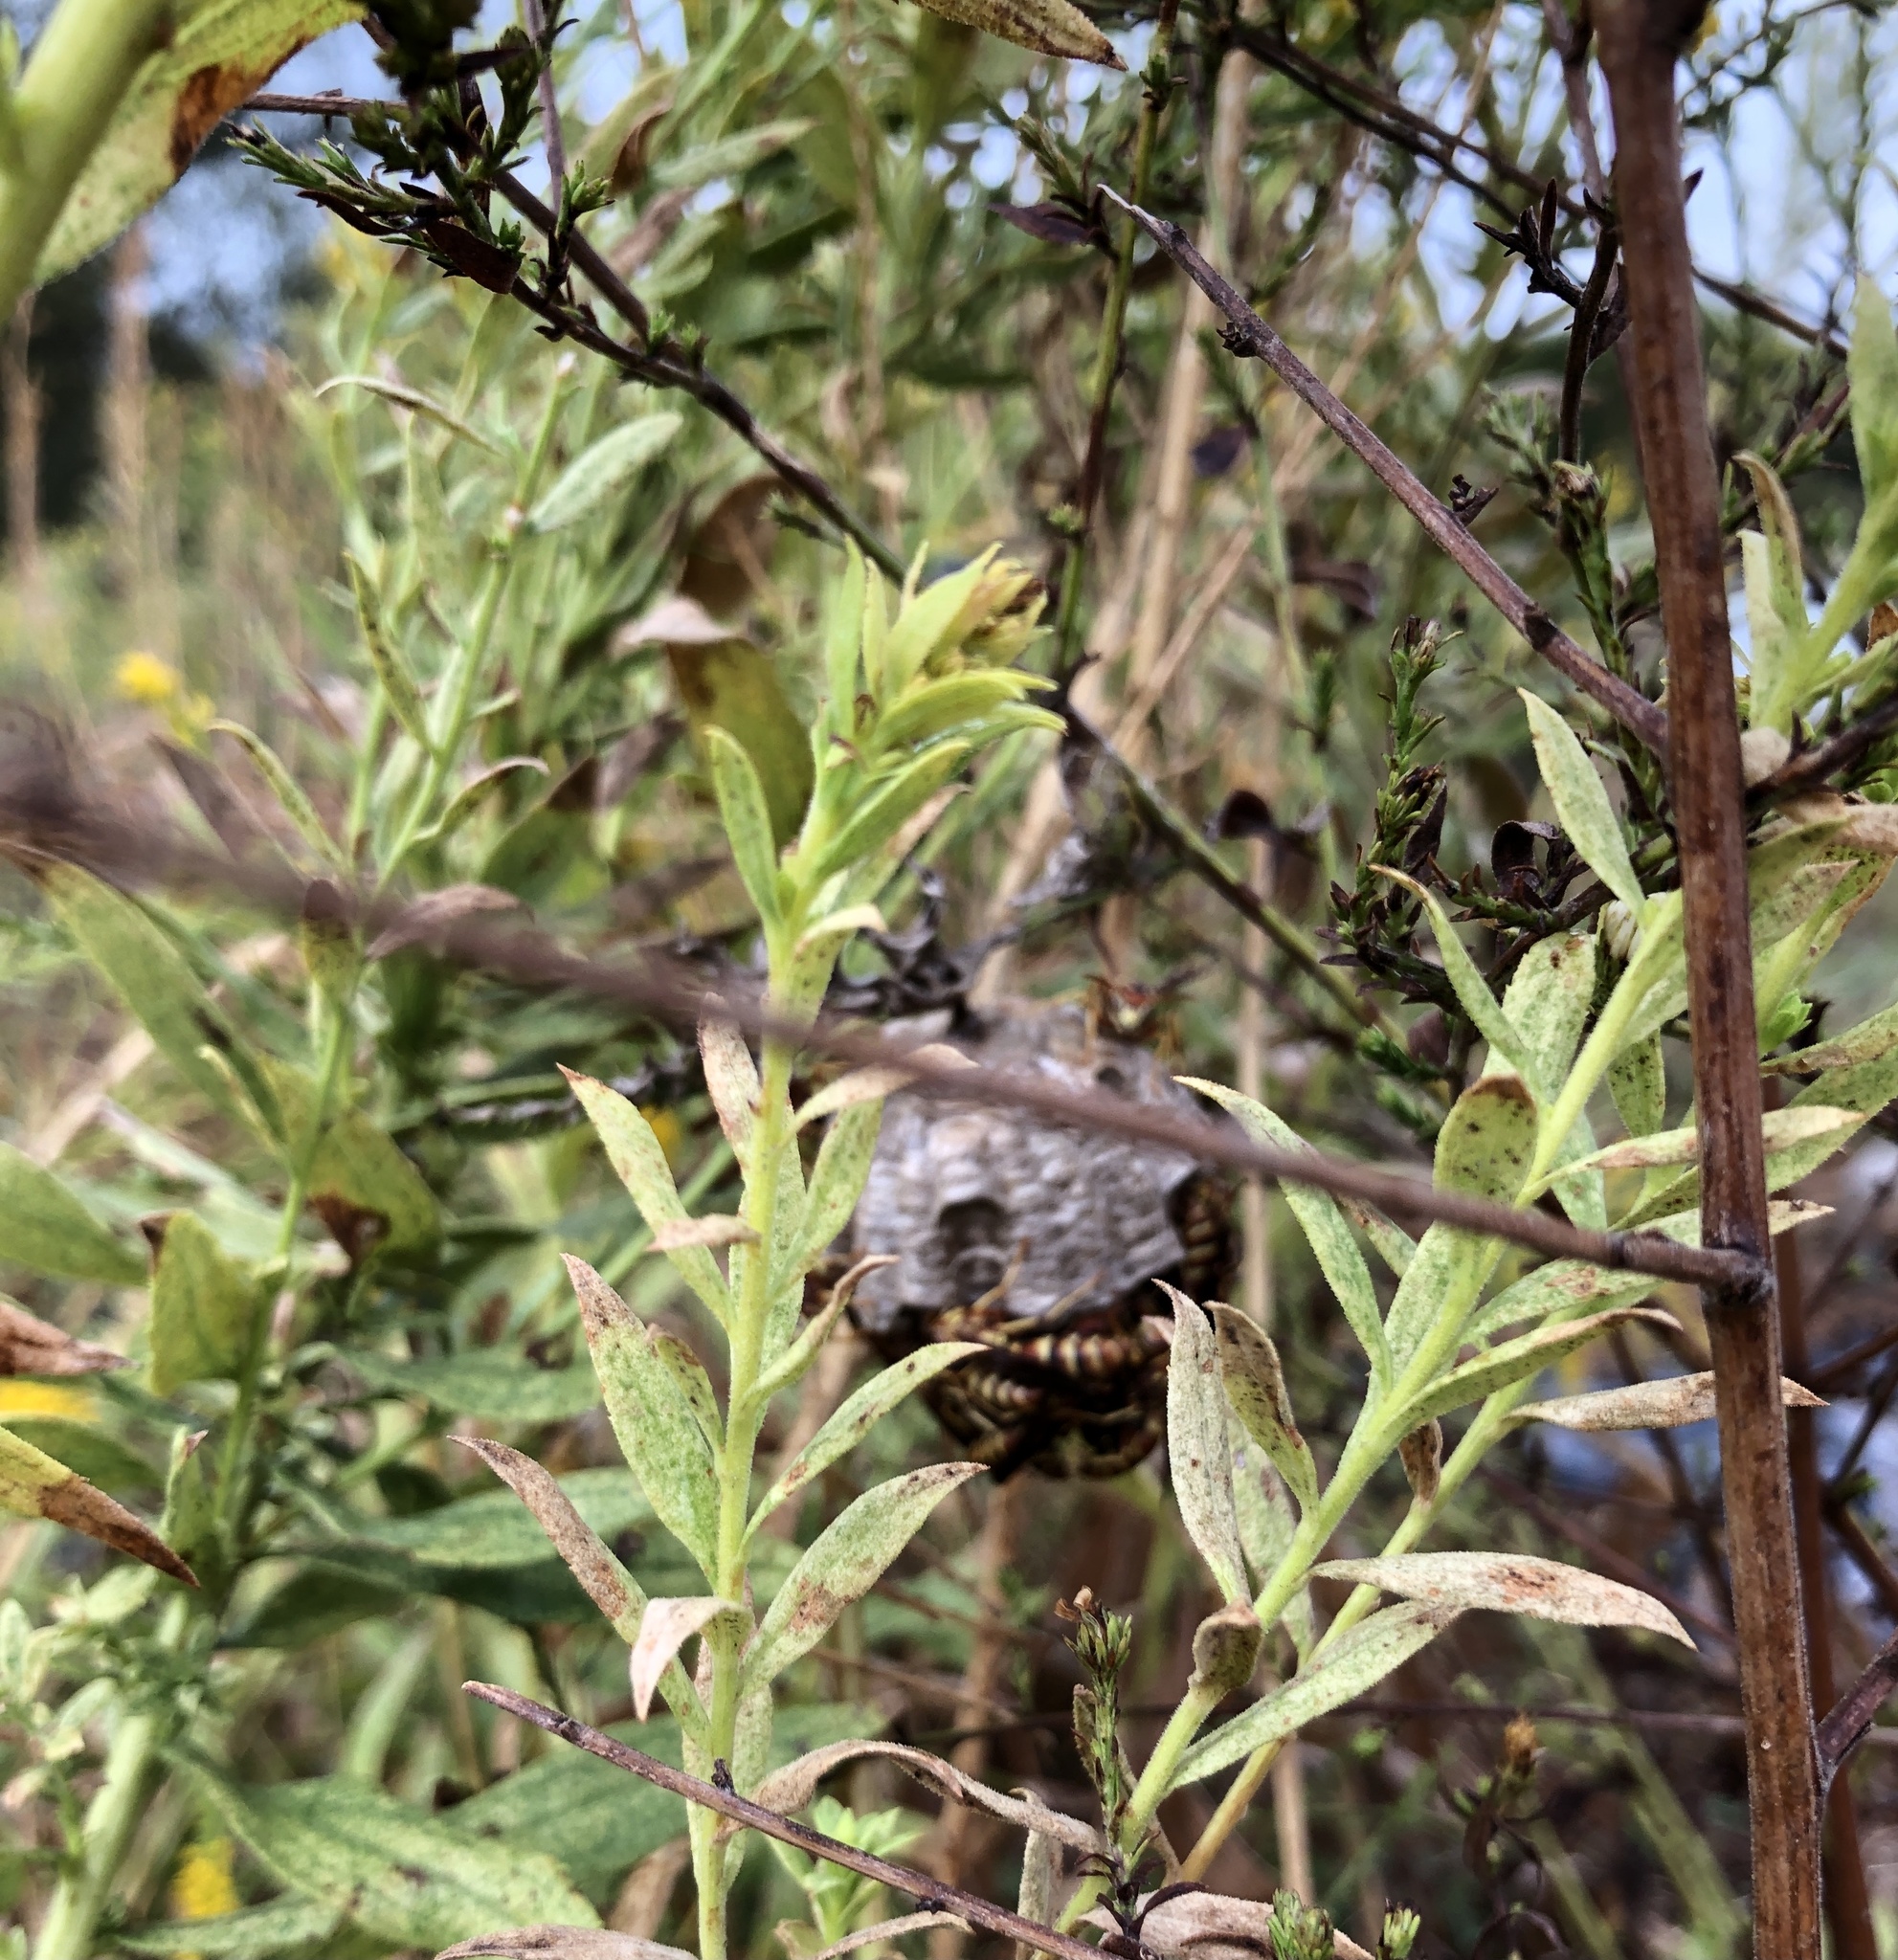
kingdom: Animalia
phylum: Arthropoda
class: Insecta
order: Hymenoptera
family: Eumenidae
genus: Polistes
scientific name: Polistes dorsalis
